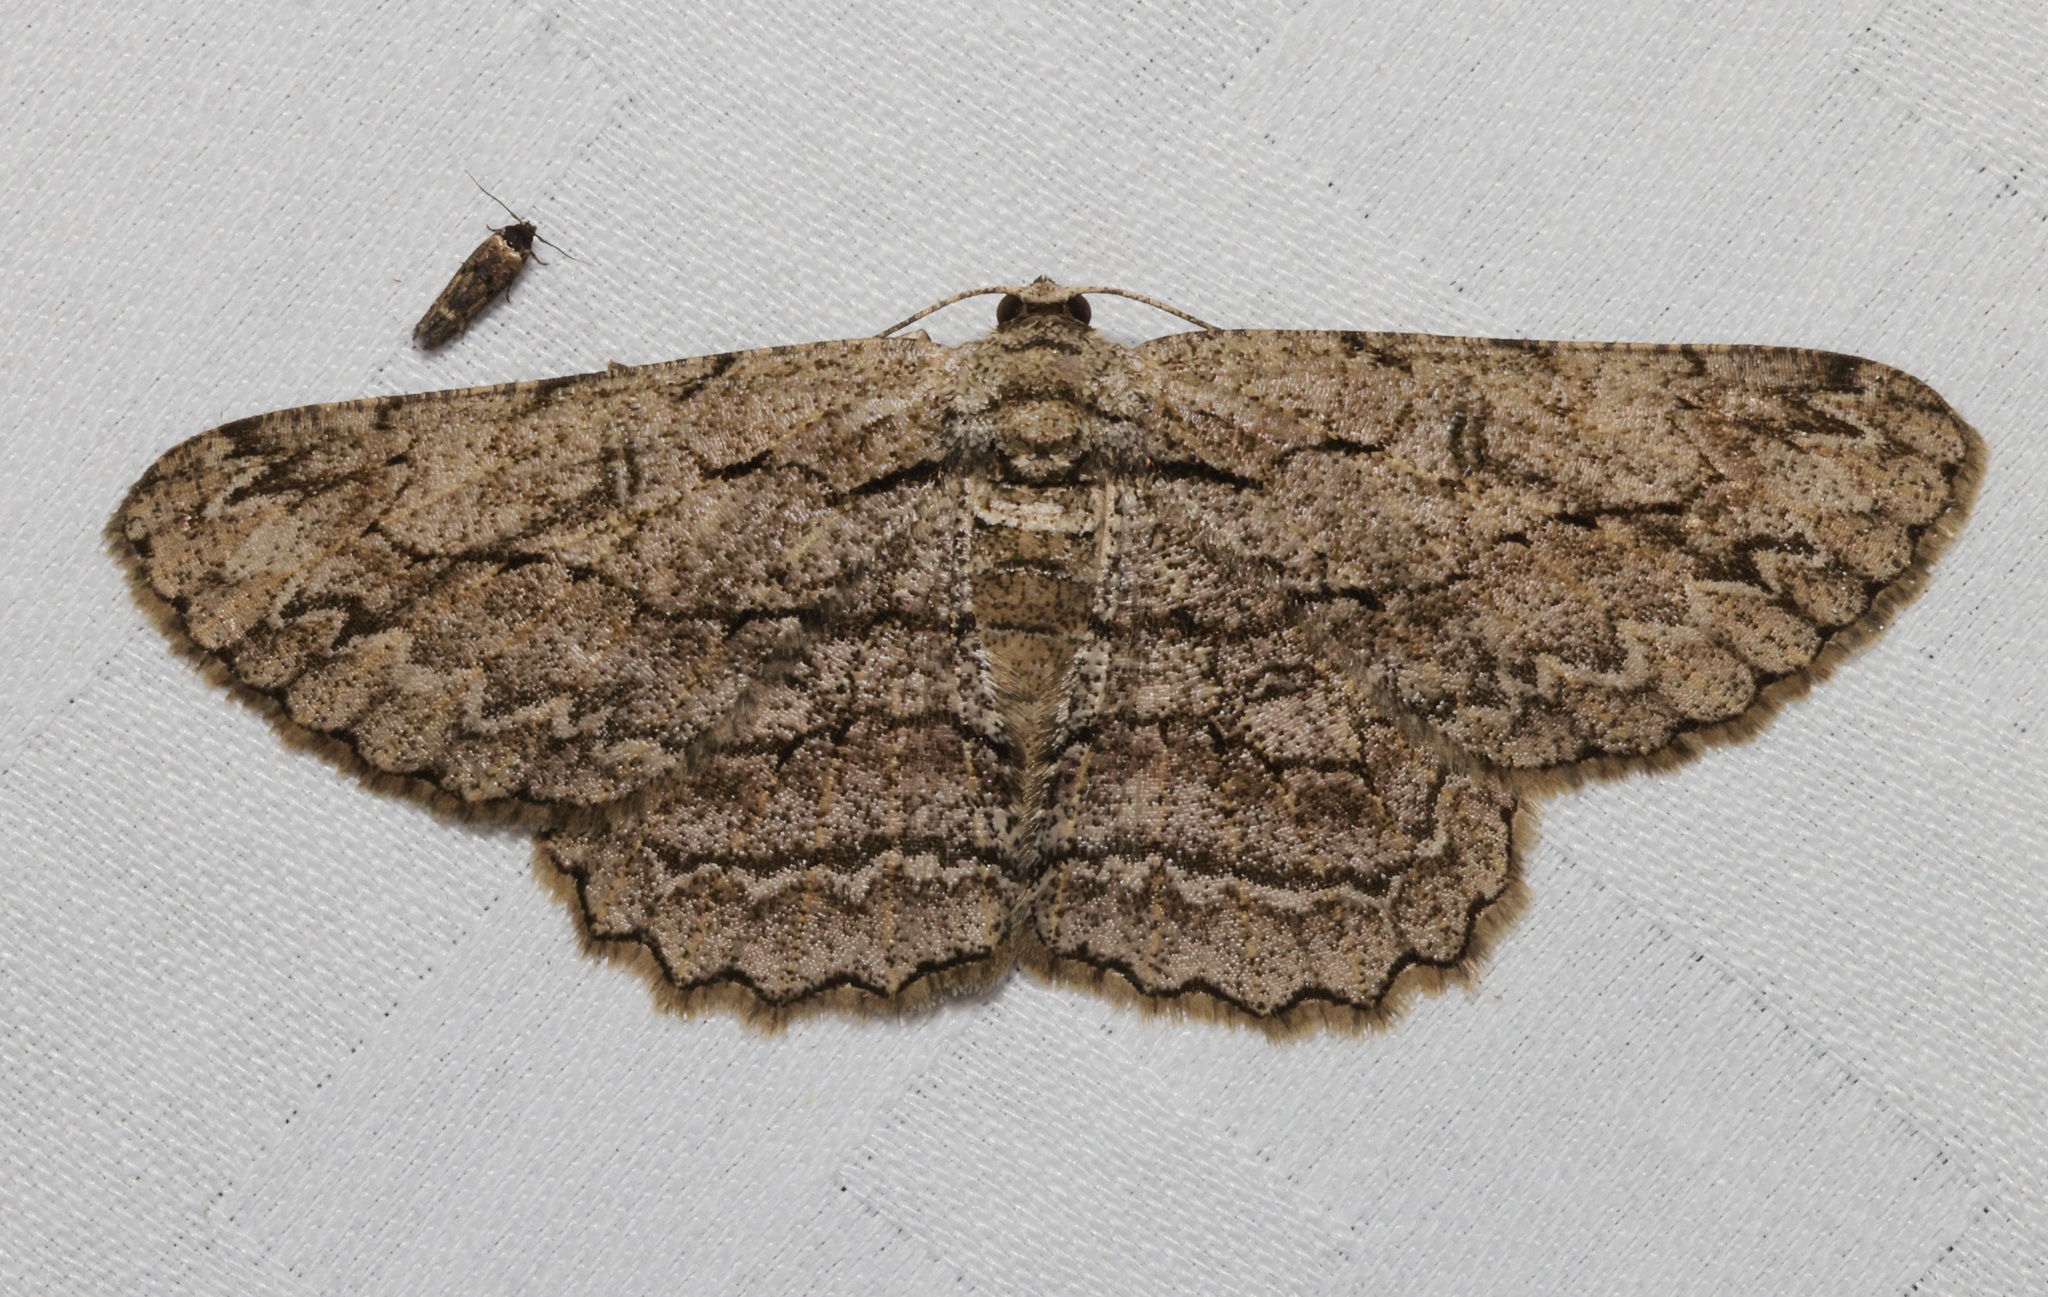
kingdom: Animalia
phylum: Arthropoda
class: Insecta
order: Lepidoptera
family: Geometridae
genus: Hypomecis
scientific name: Hypomecis transcissa
